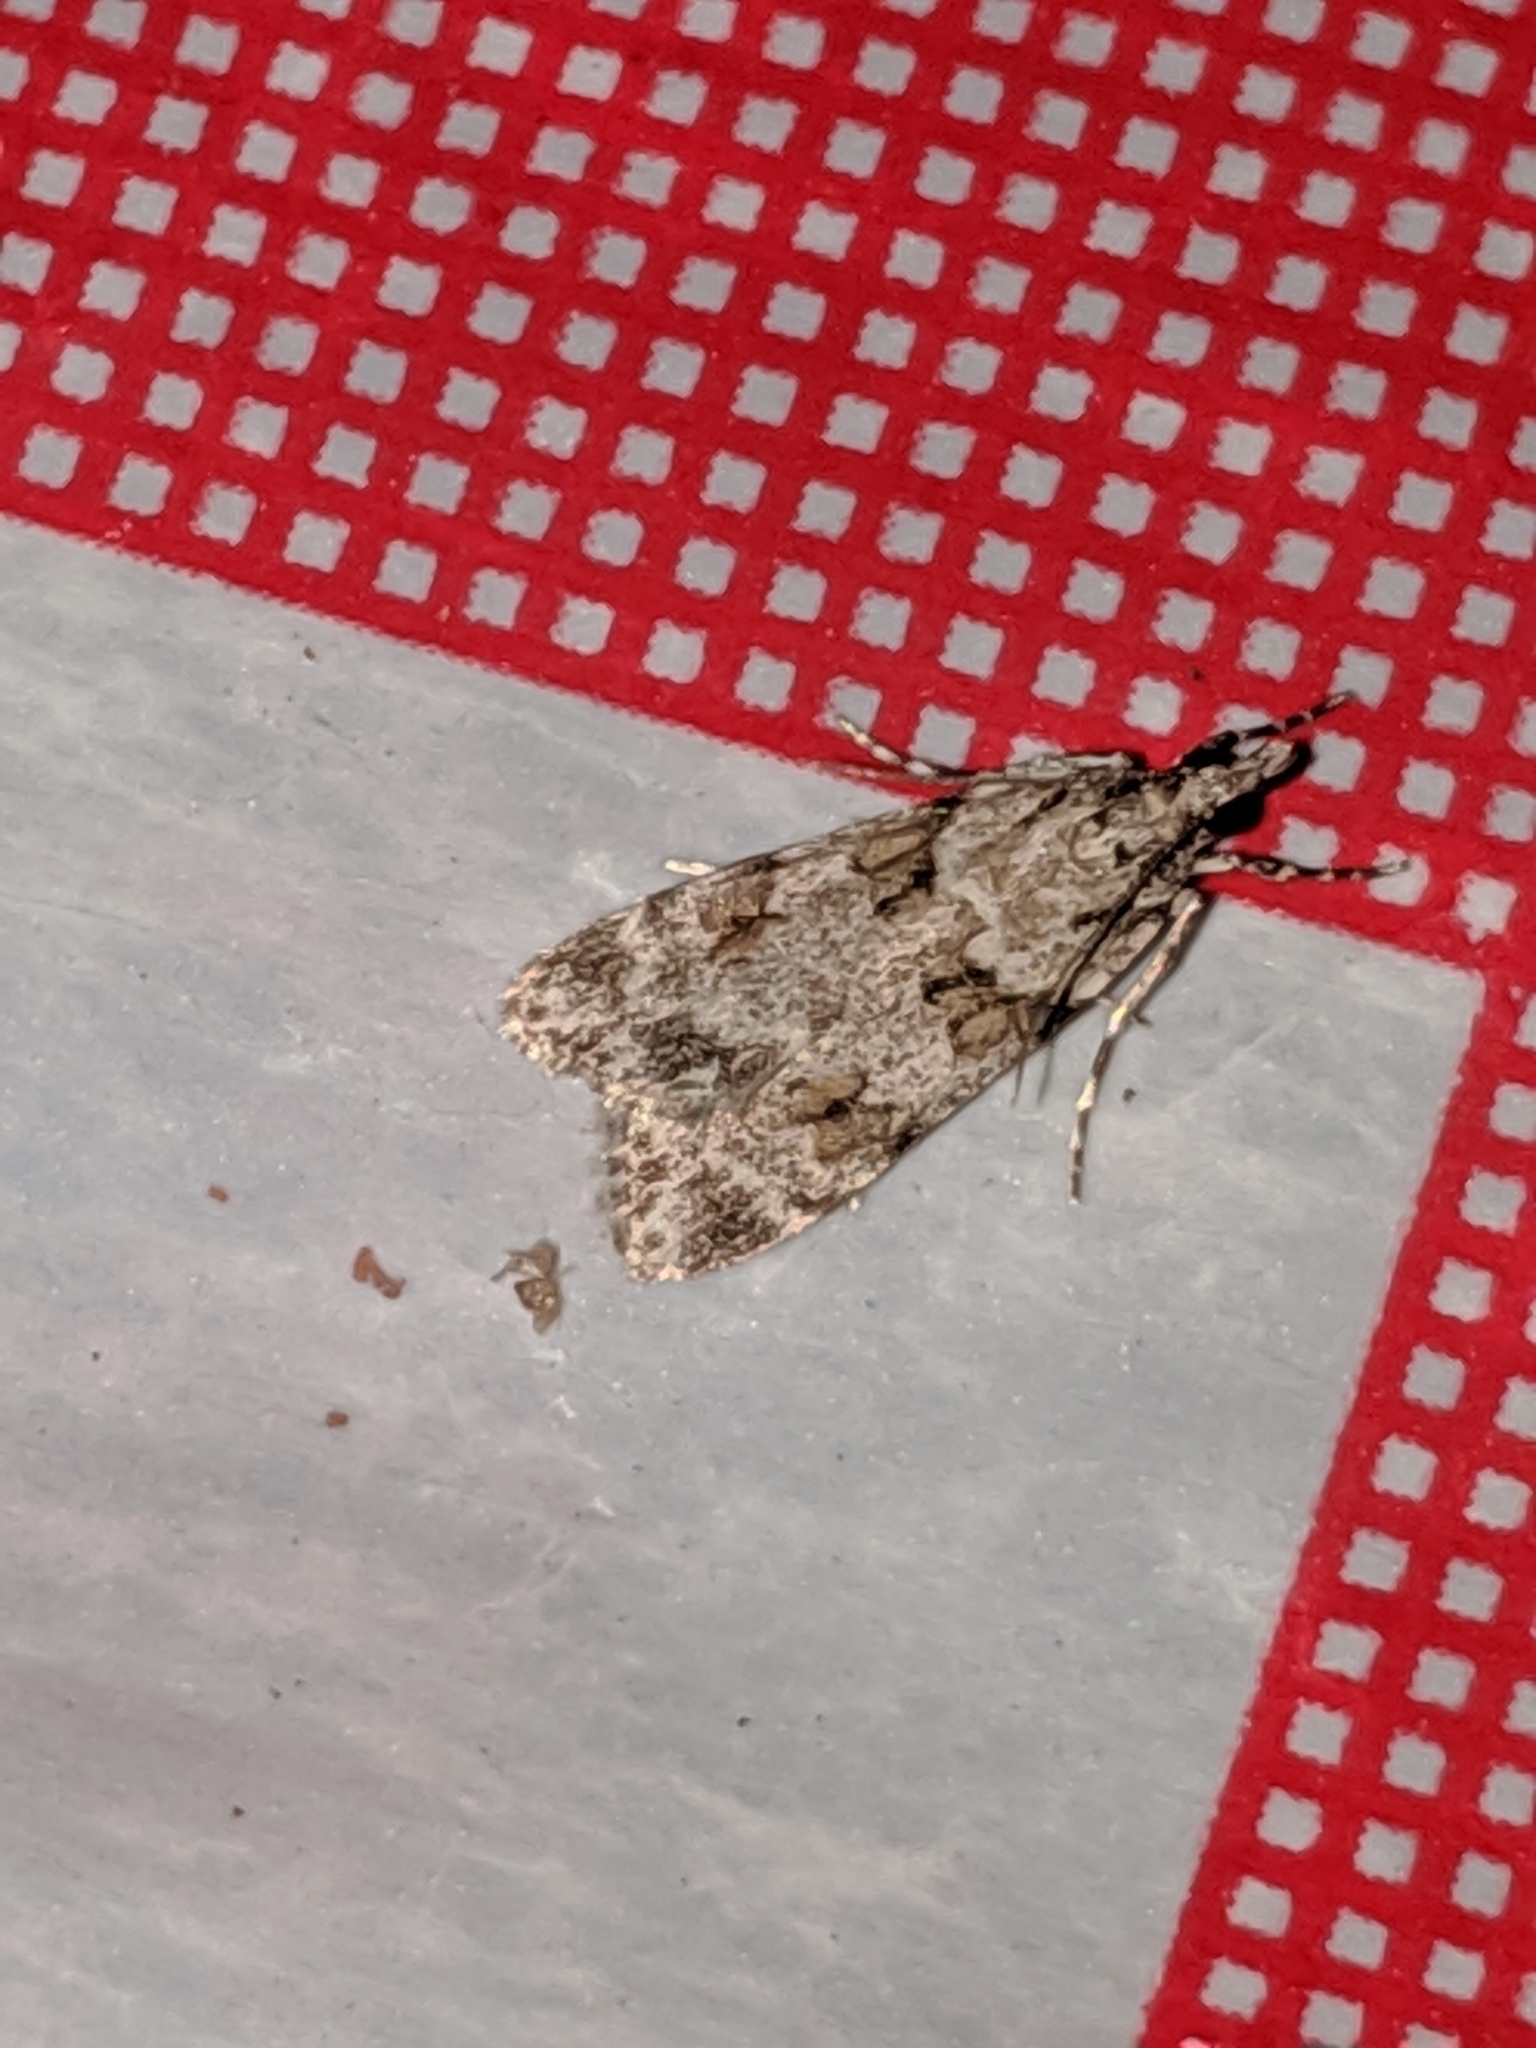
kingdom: Animalia
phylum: Arthropoda
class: Insecta
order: Lepidoptera
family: Crambidae
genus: Scoparia
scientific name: Scoparia biplagialis
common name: Double-striped scoparia moth
